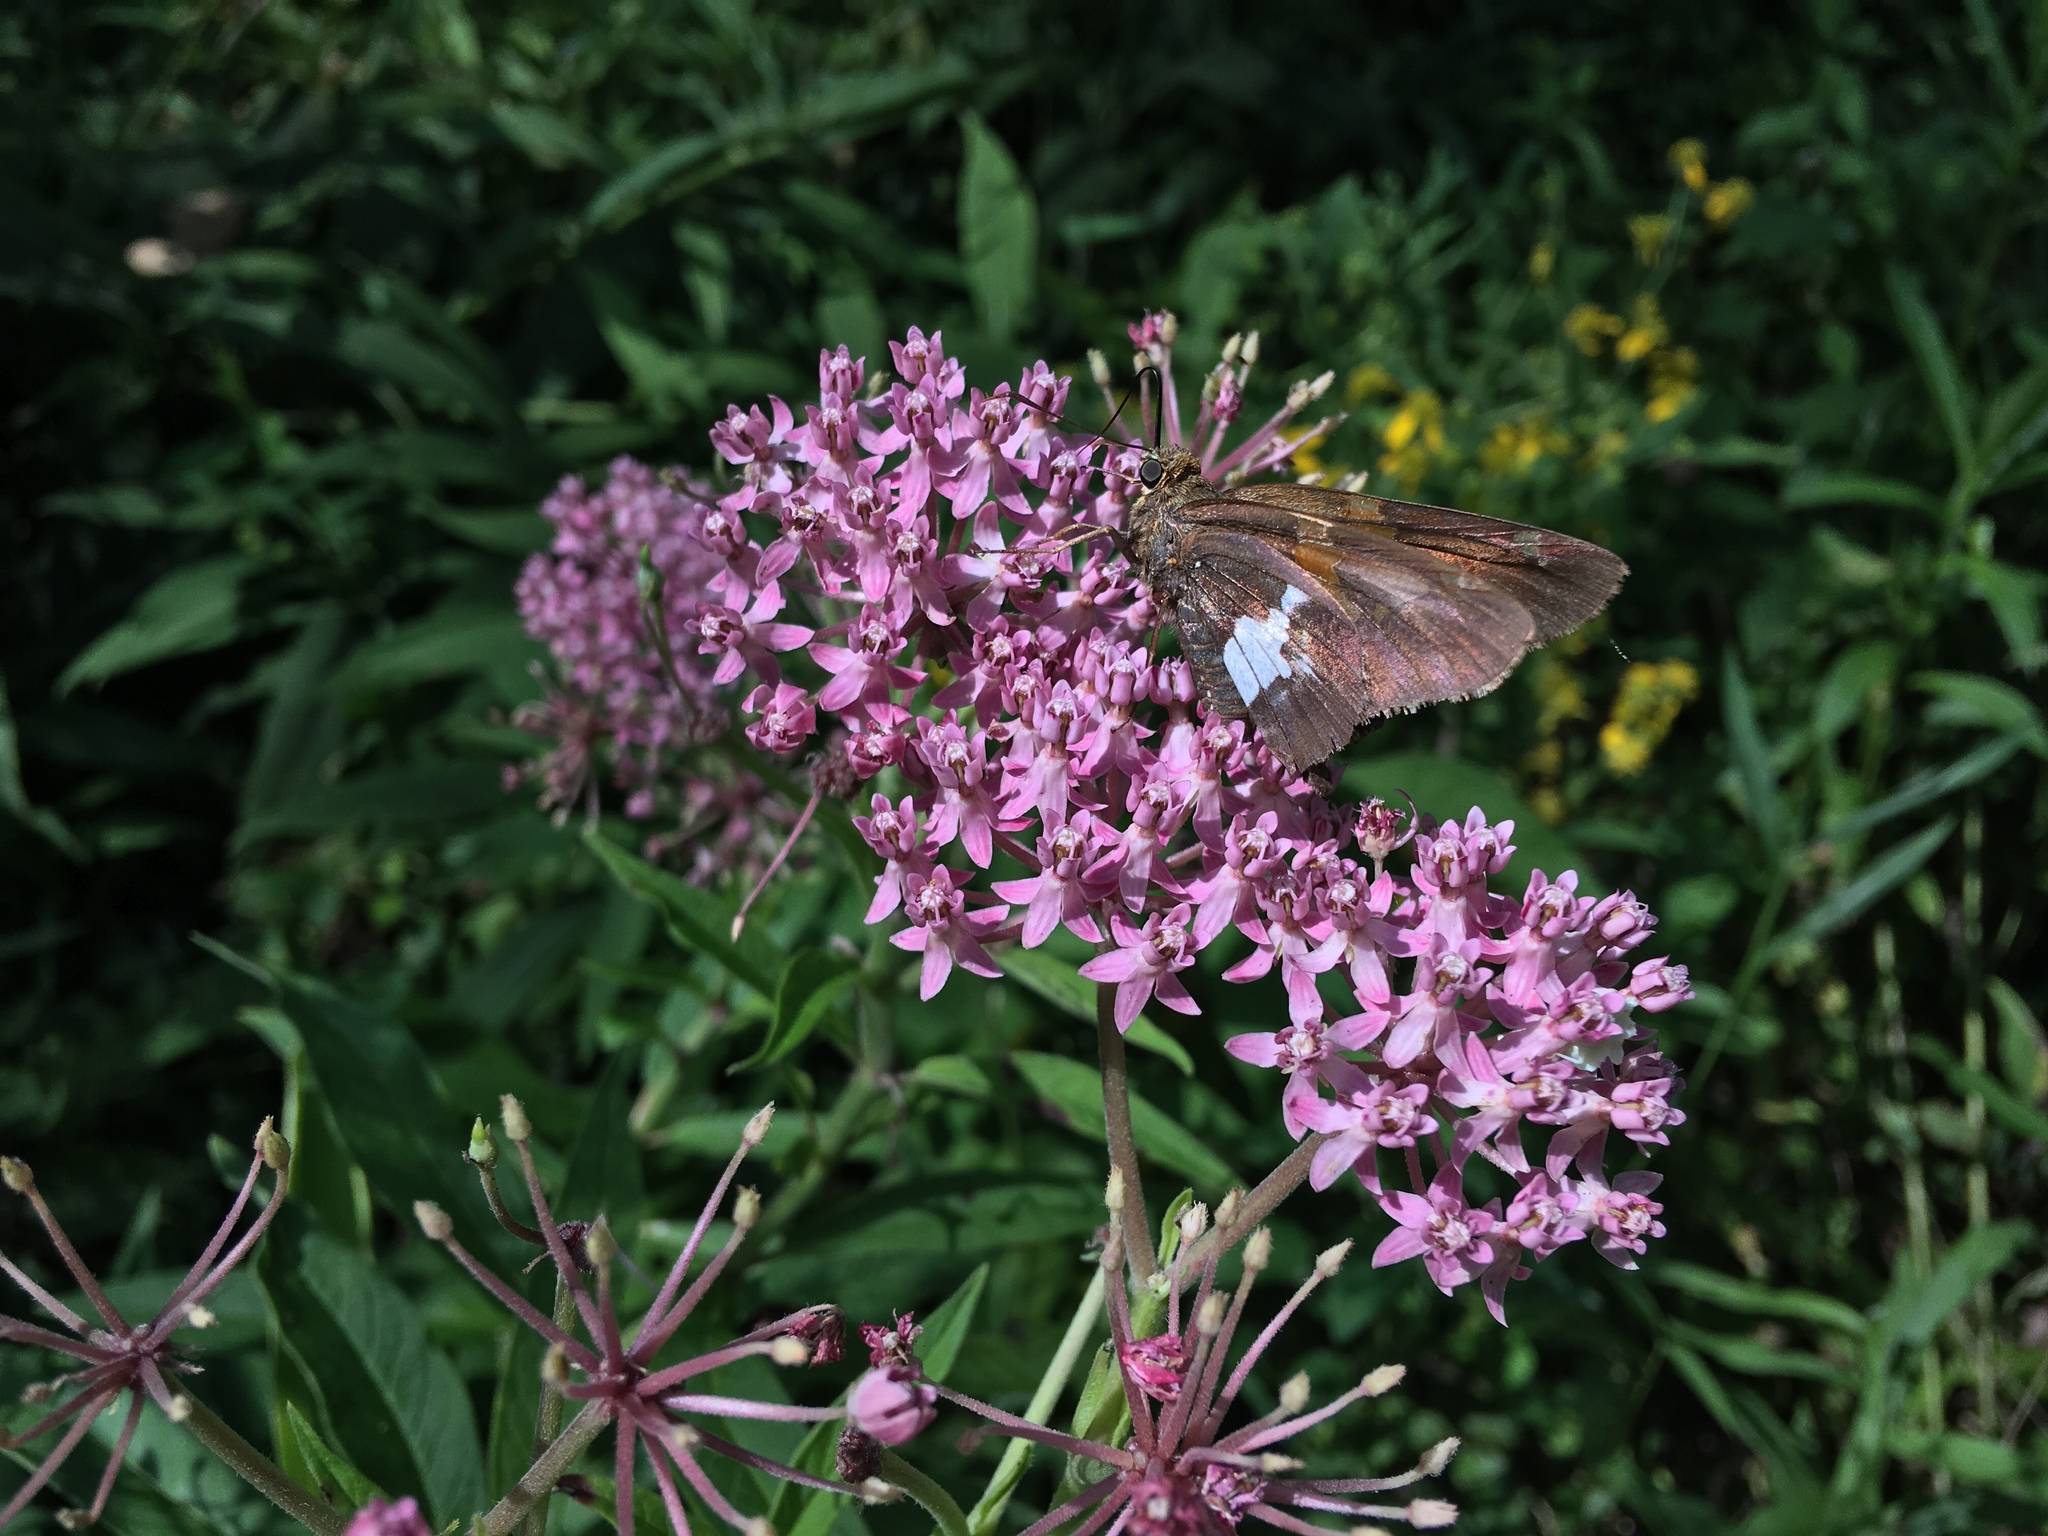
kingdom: Plantae
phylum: Tracheophyta
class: Magnoliopsida
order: Gentianales
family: Apocynaceae
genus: Asclepias
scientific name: Asclepias incarnata
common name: Swamp milkweed
